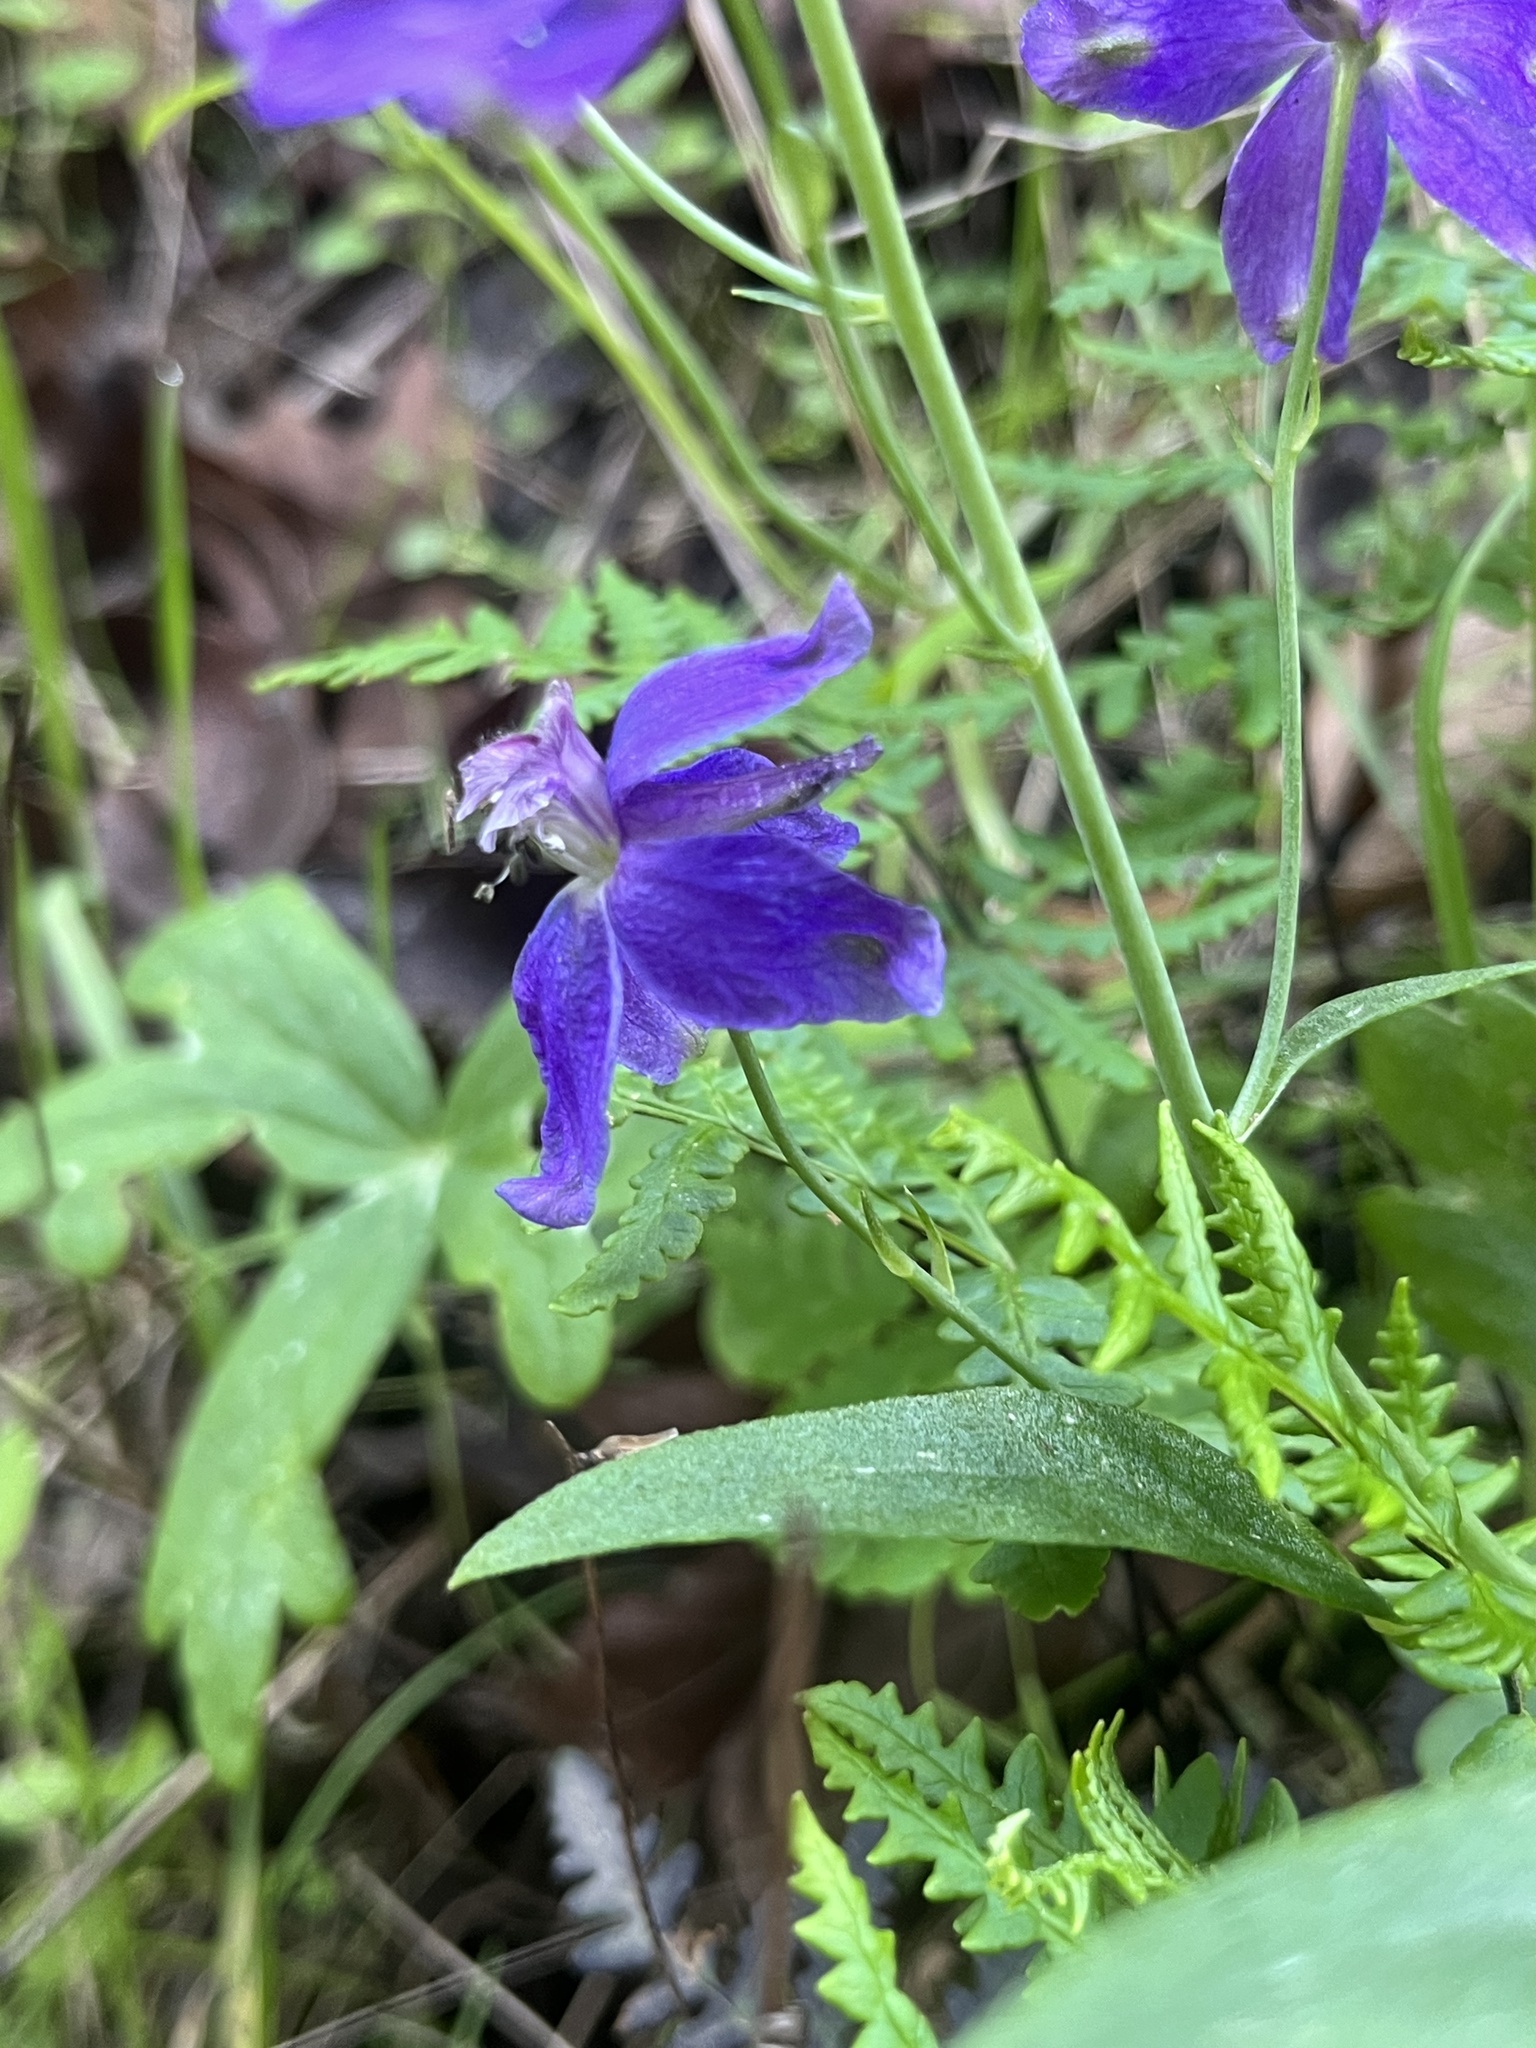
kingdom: Plantae
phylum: Tracheophyta
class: Magnoliopsida
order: Ranunculales
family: Ranunculaceae
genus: Delphinium
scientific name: Delphinium patens
